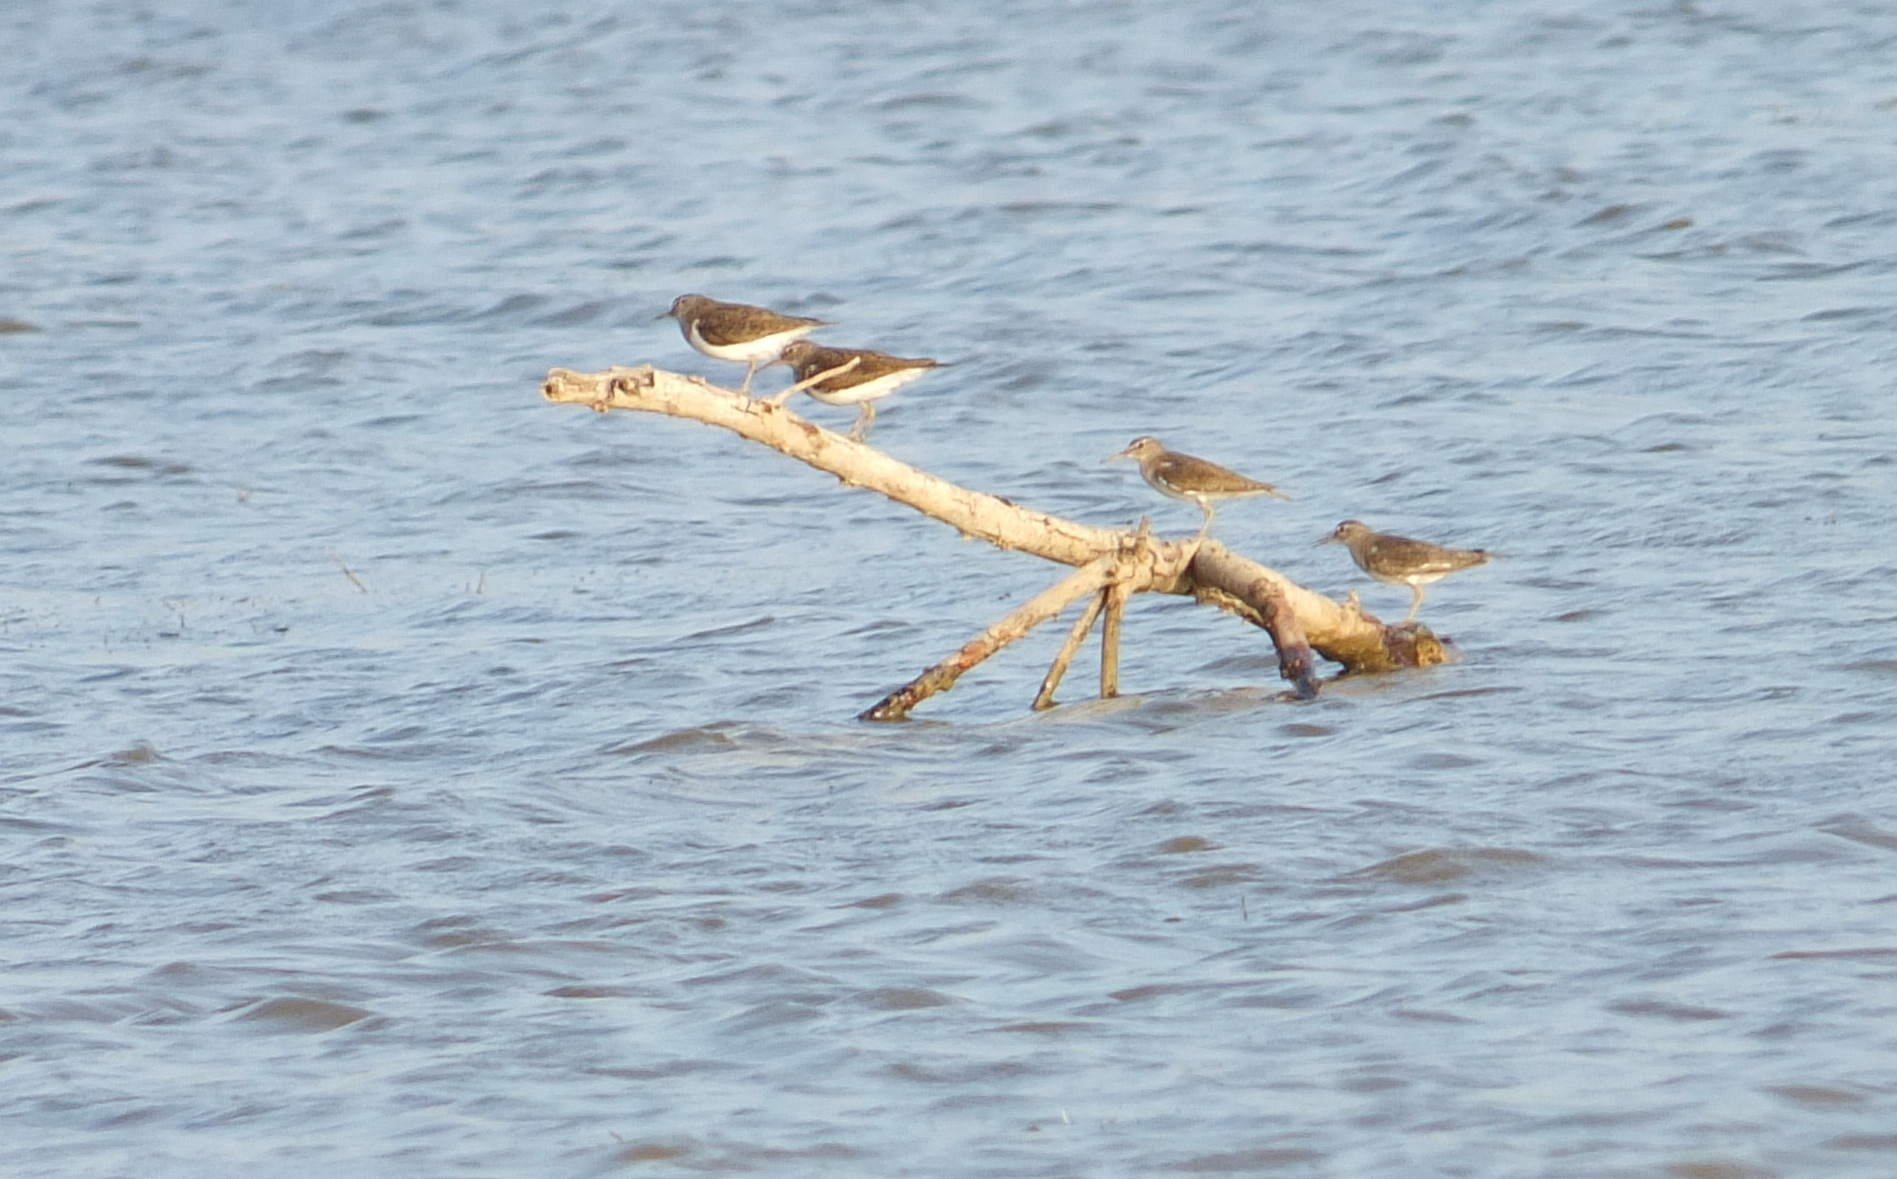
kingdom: Animalia
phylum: Chordata
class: Aves
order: Charadriiformes
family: Scolopacidae
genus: Actitis
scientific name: Actitis hypoleucos
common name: Common sandpiper
